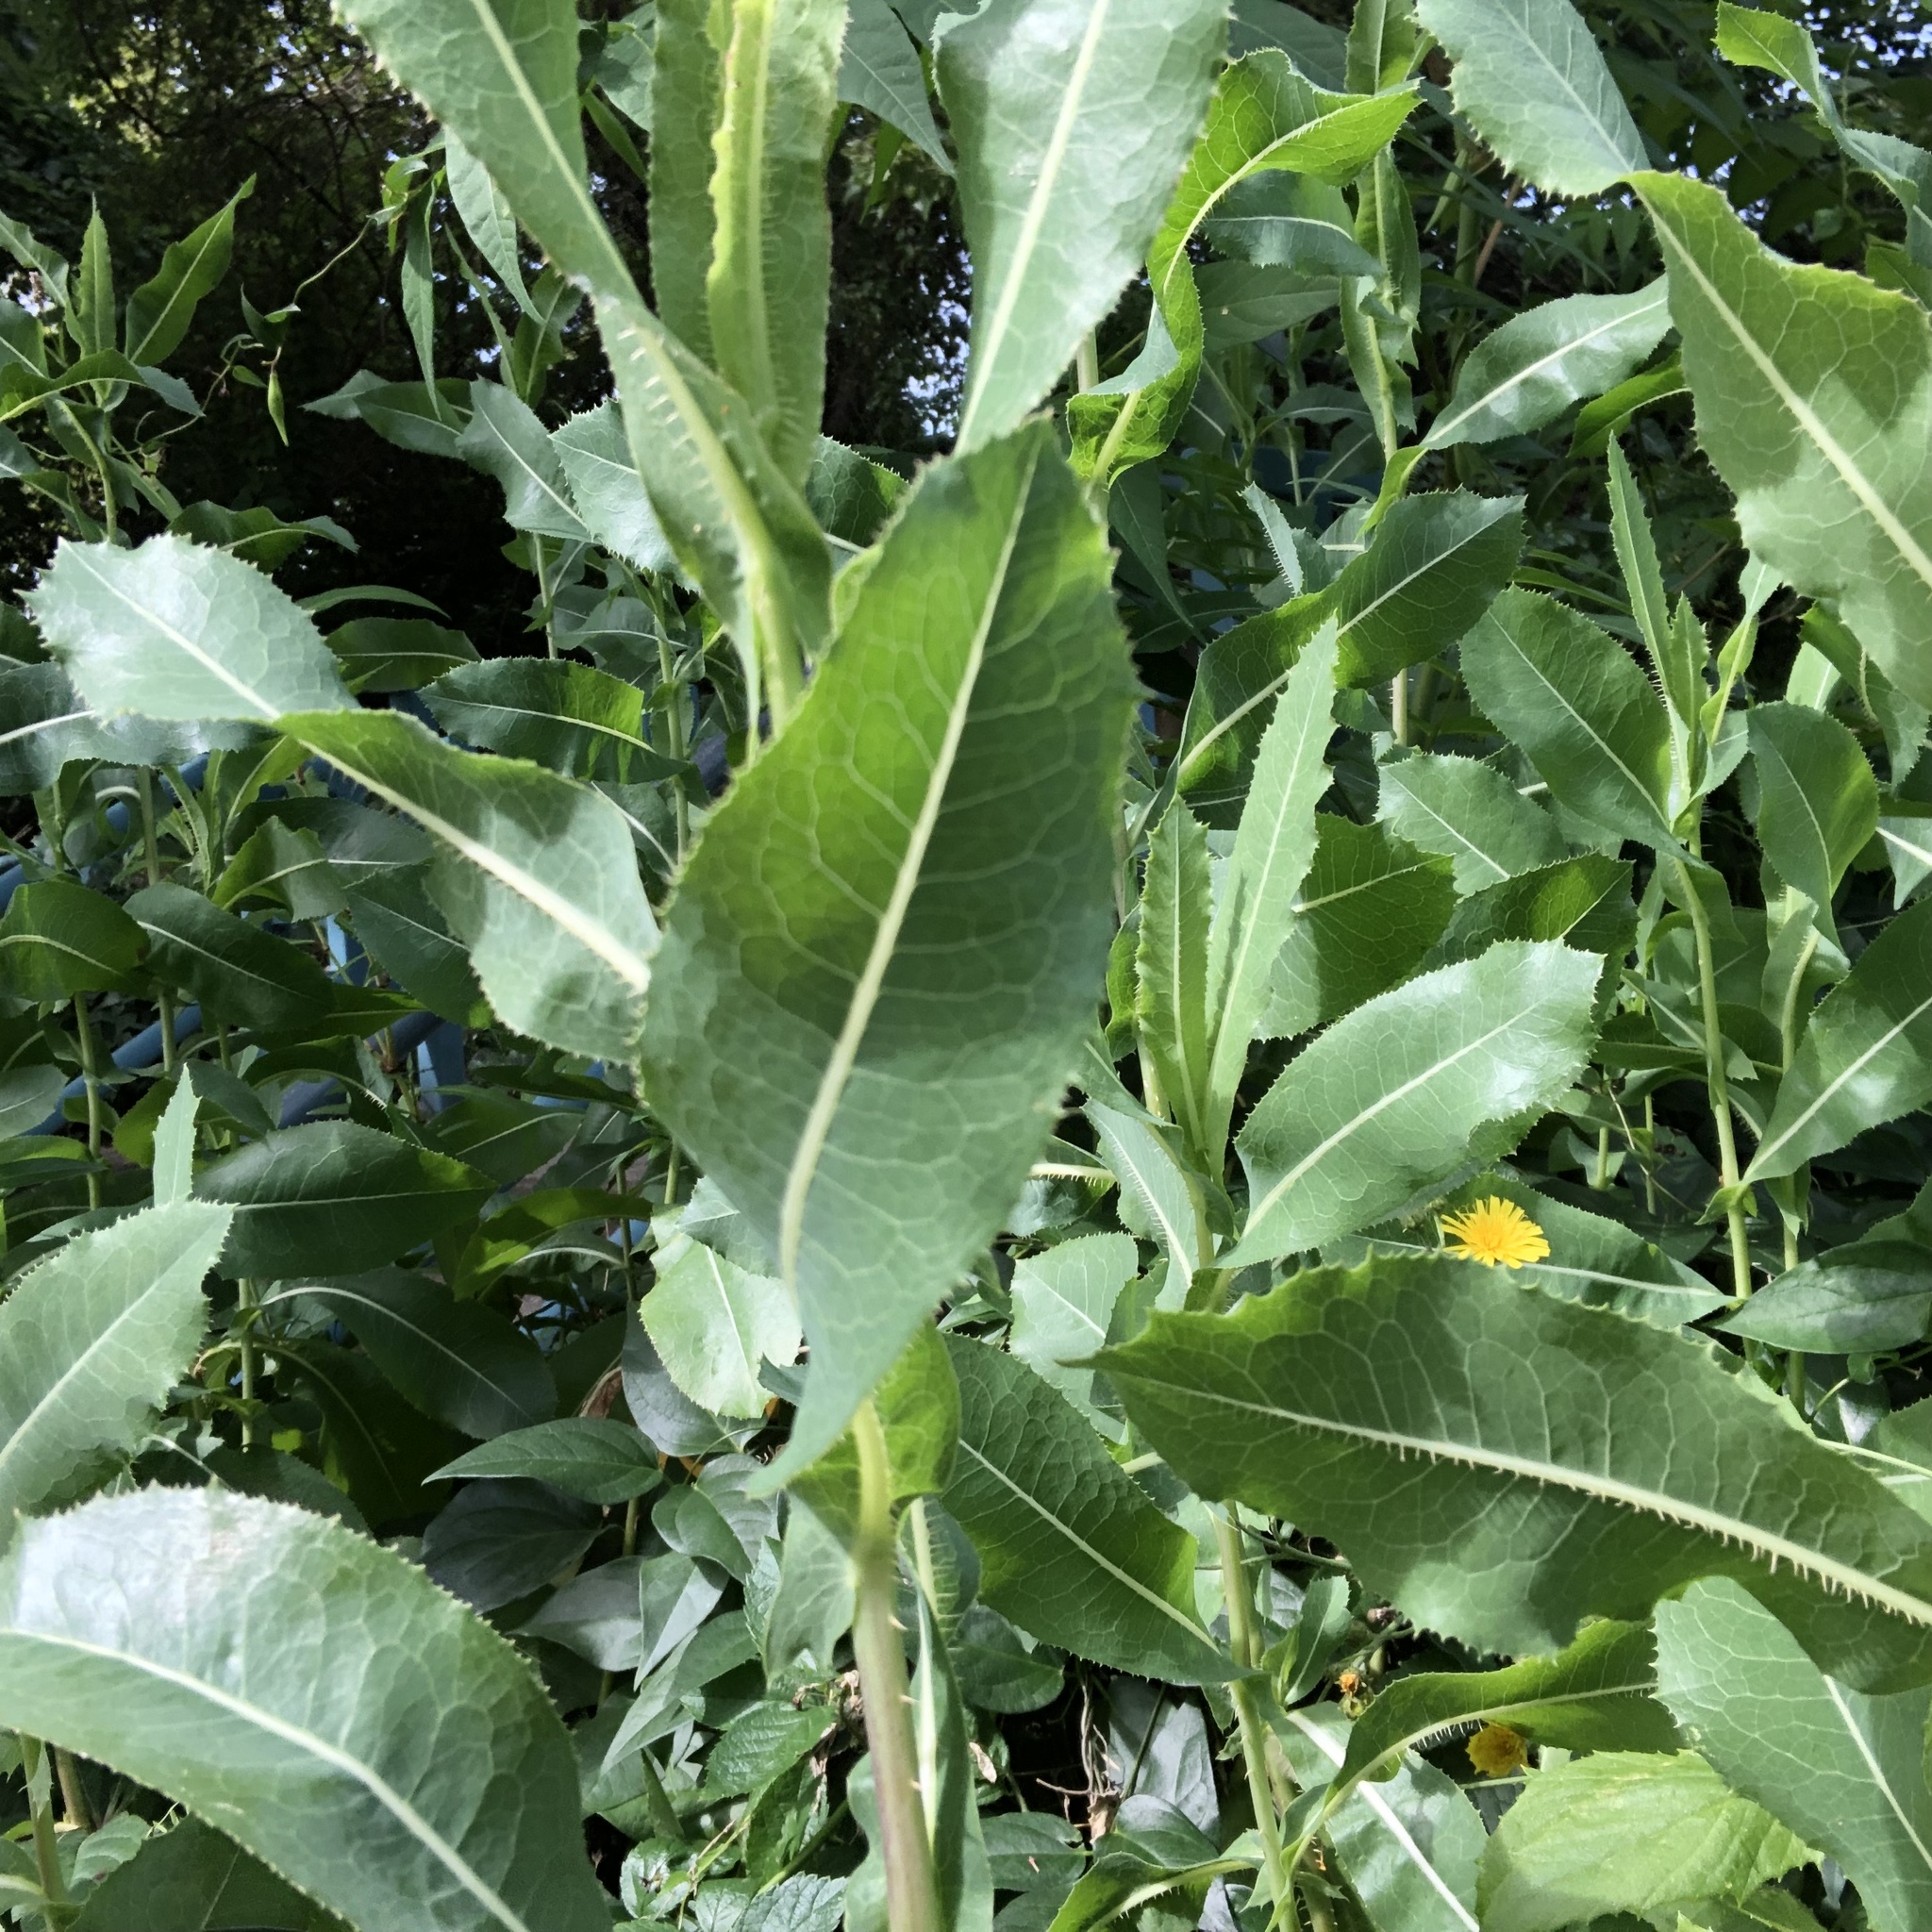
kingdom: Plantae
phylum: Tracheophyta
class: Magnoliopsida
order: Asterales
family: Asteraceae
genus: Lactuca
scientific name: Lactuca serriola
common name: Prickly lettuce
